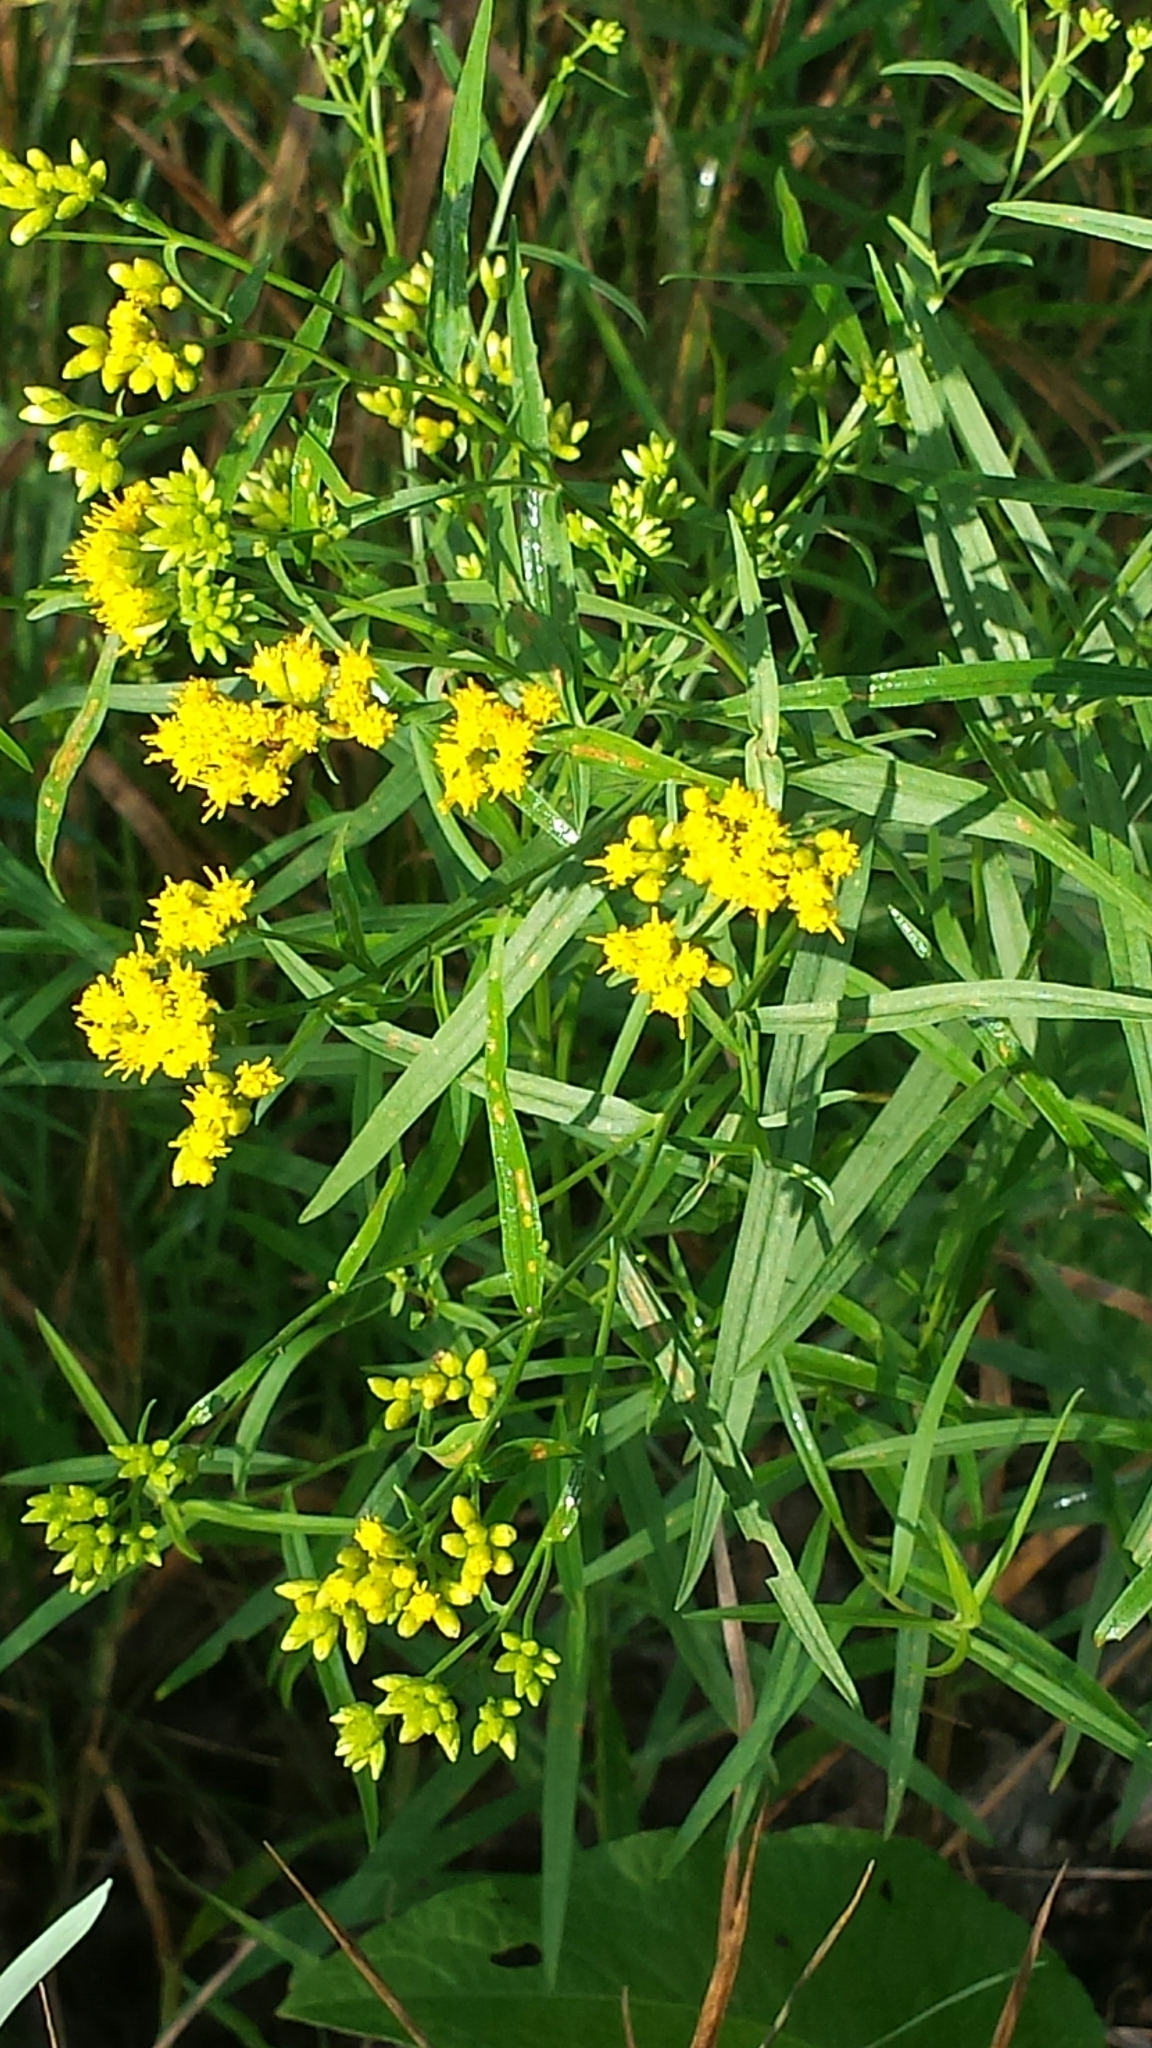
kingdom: Plantae
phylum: Tracheophyta
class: Magnoliopsida
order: Asterales
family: Asteraceae
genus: Euthamia
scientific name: Euthamia graminifolia
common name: Common goldentop
